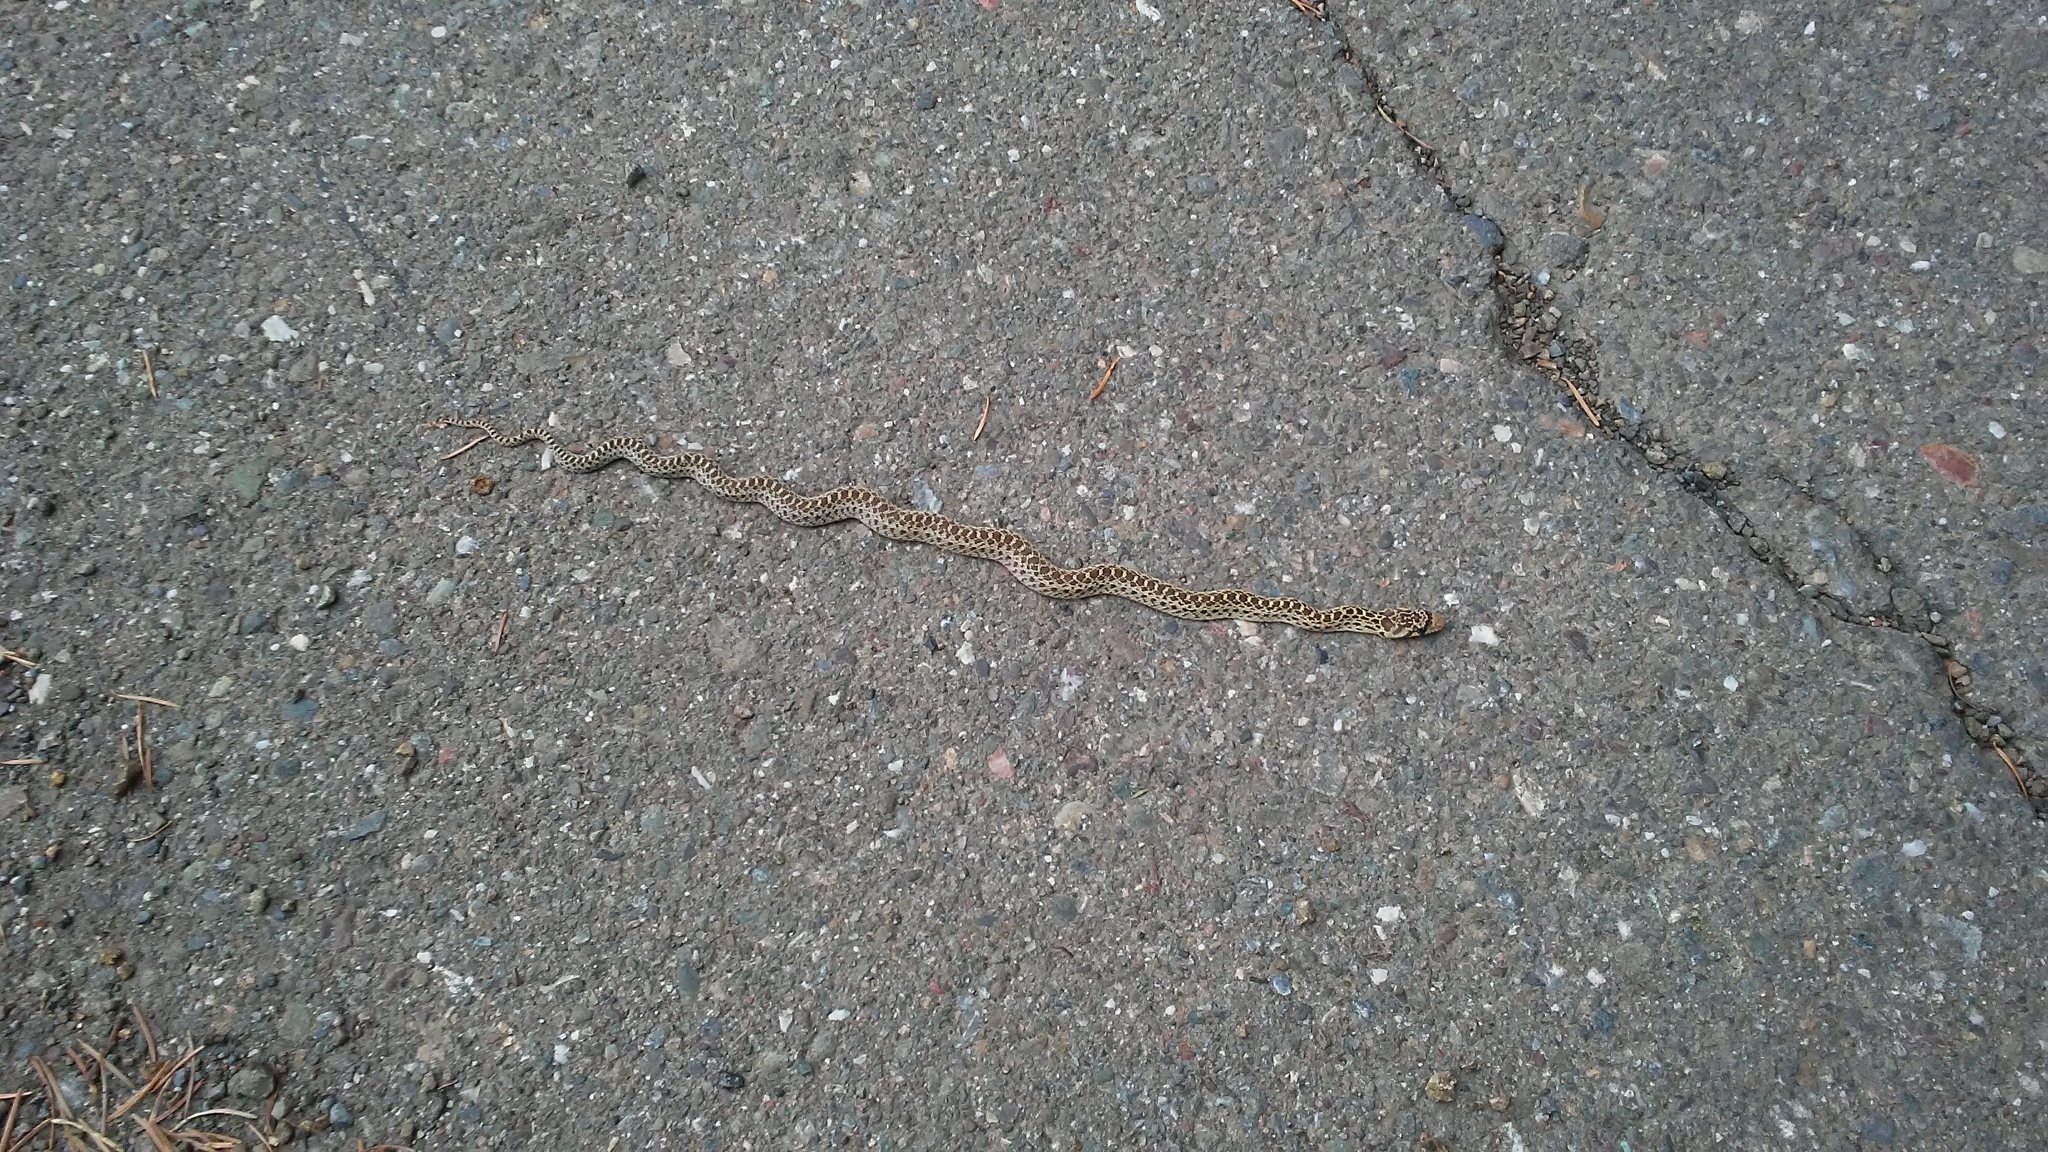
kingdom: Animalia
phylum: Chordata
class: Squamata
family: Colubridae
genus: Pituophis
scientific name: Pituophis catenifer
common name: Gopher snake
